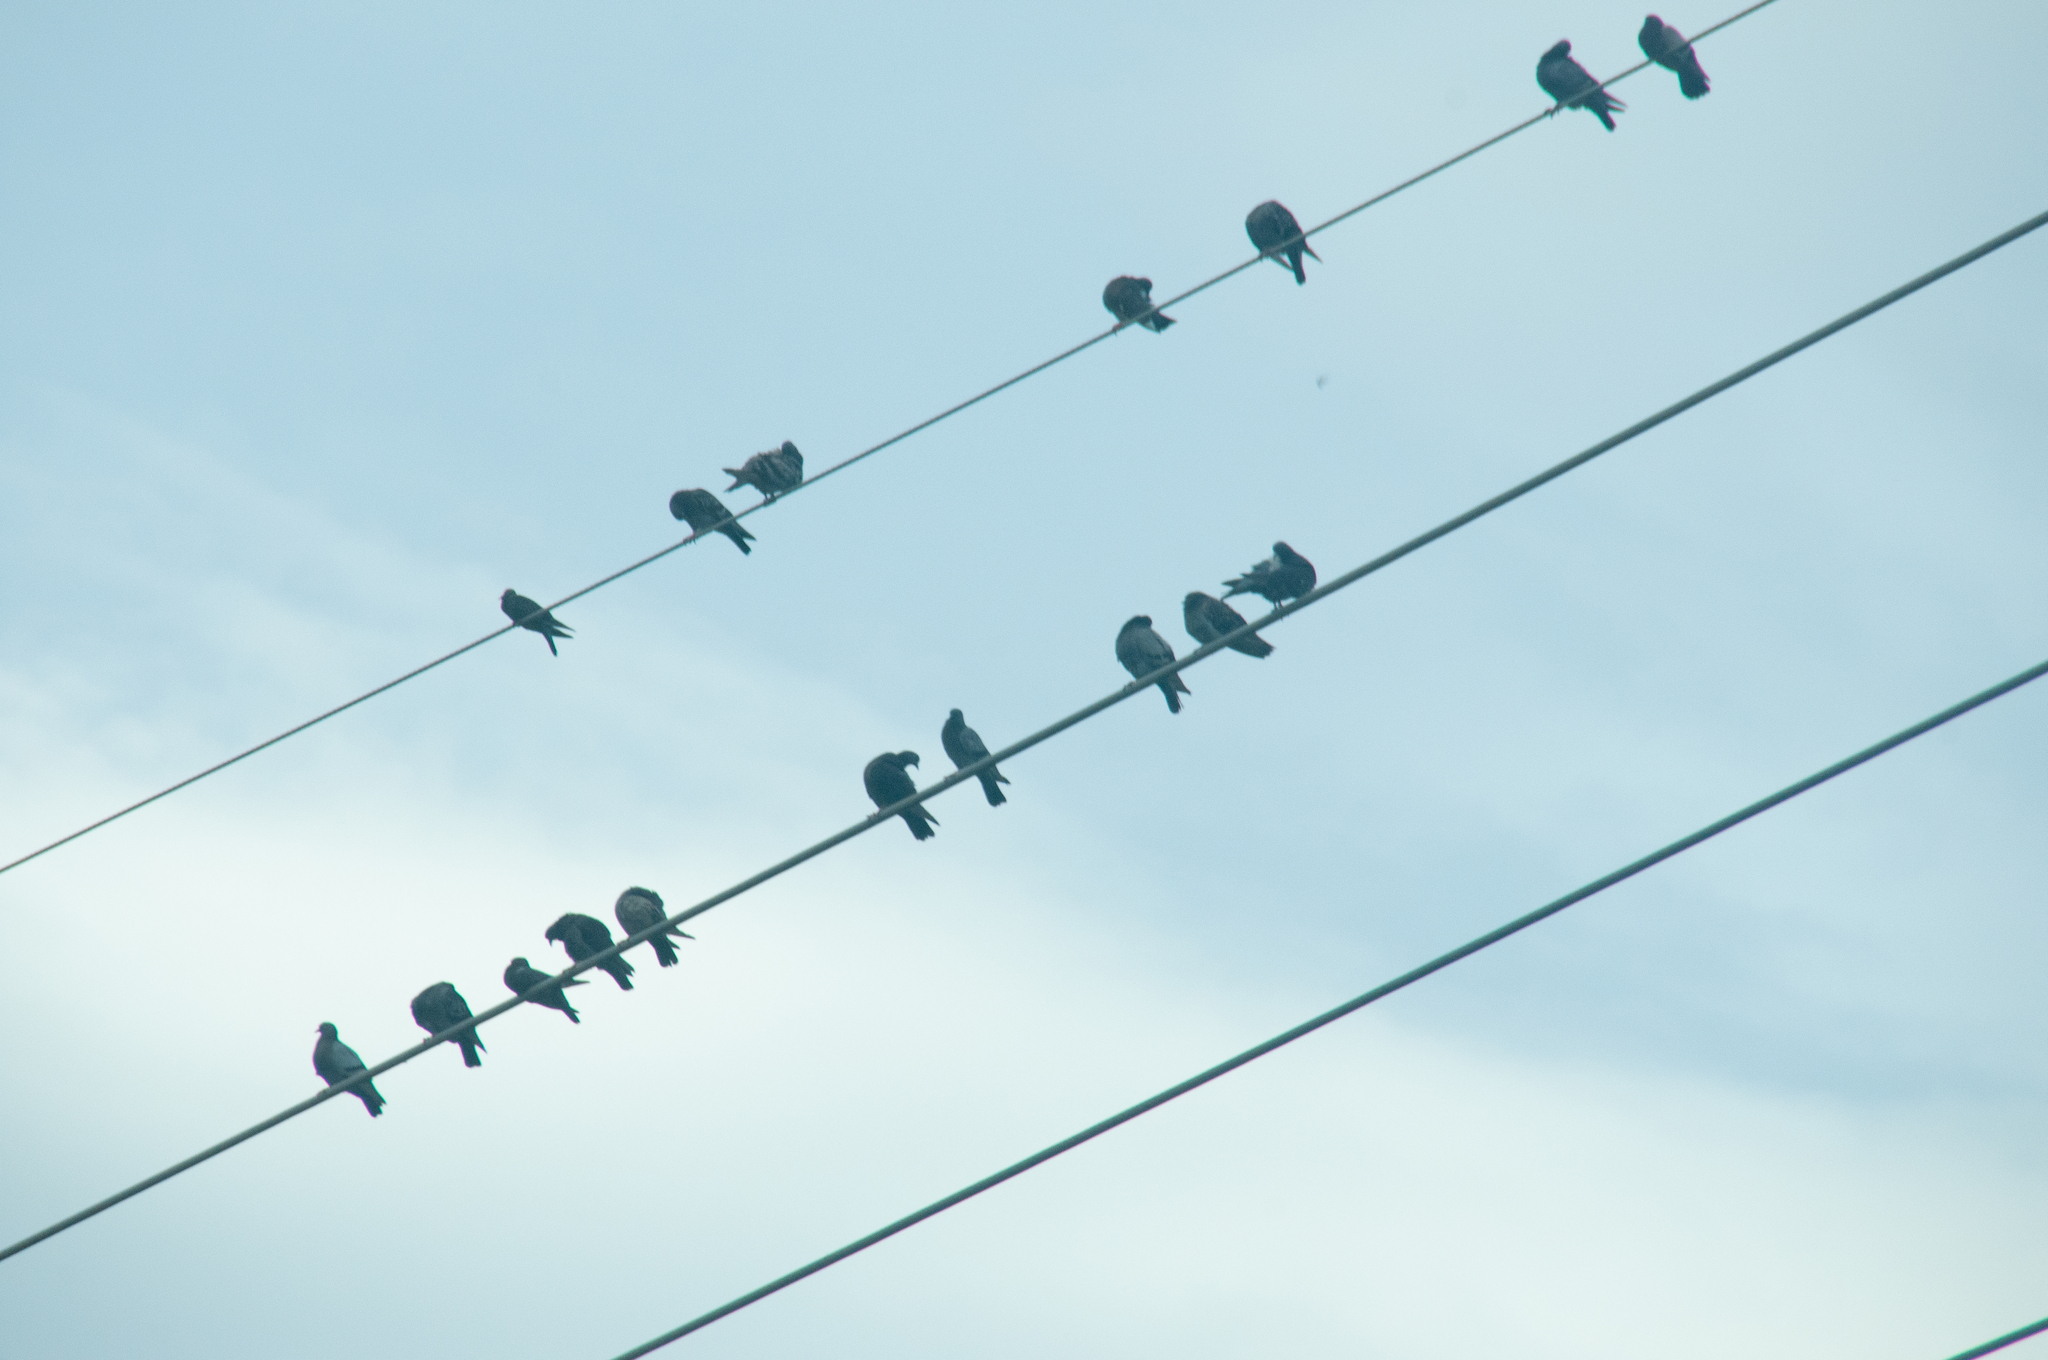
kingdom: Animalia
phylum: Chordata
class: Aves
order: Columbiformes
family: Columbidae
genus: Columba
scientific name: Columba livia
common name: Rock pigeon
